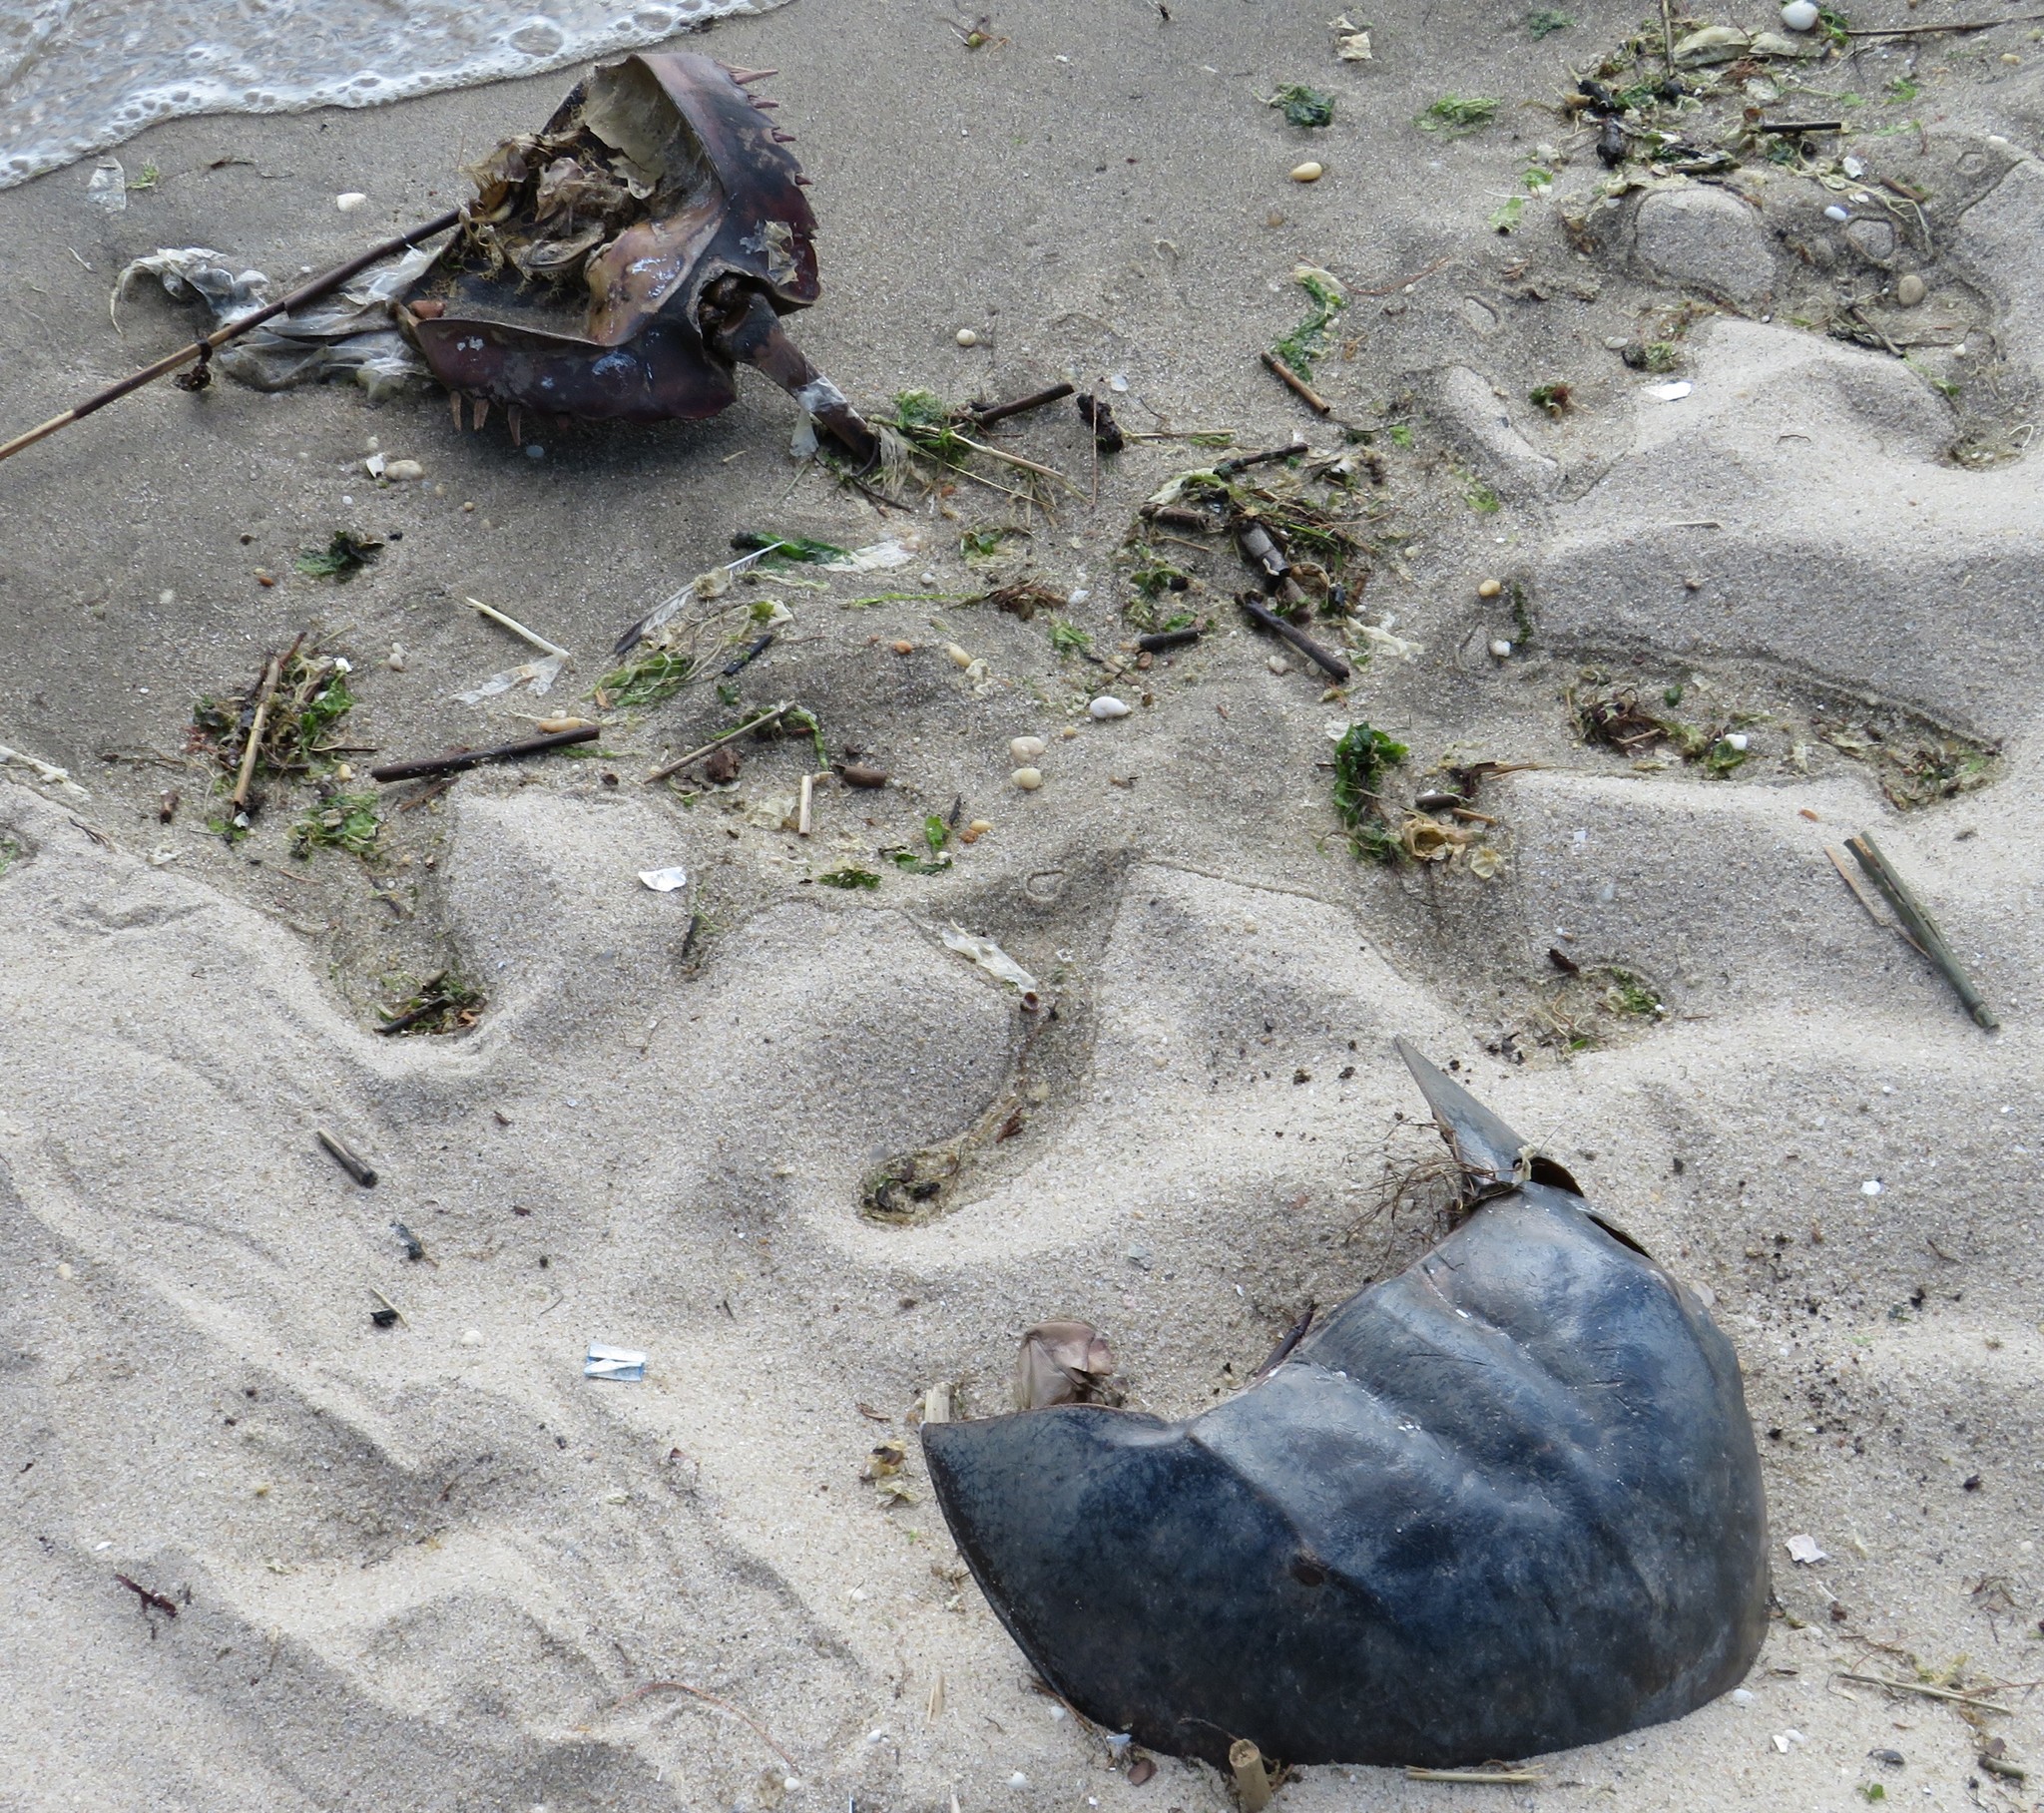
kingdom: Animalia
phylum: Arthropoda
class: Merostomata
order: Xiphosurida
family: Limulidae
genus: Limulus
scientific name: Limulus polyphemus
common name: Horseshoe crab
